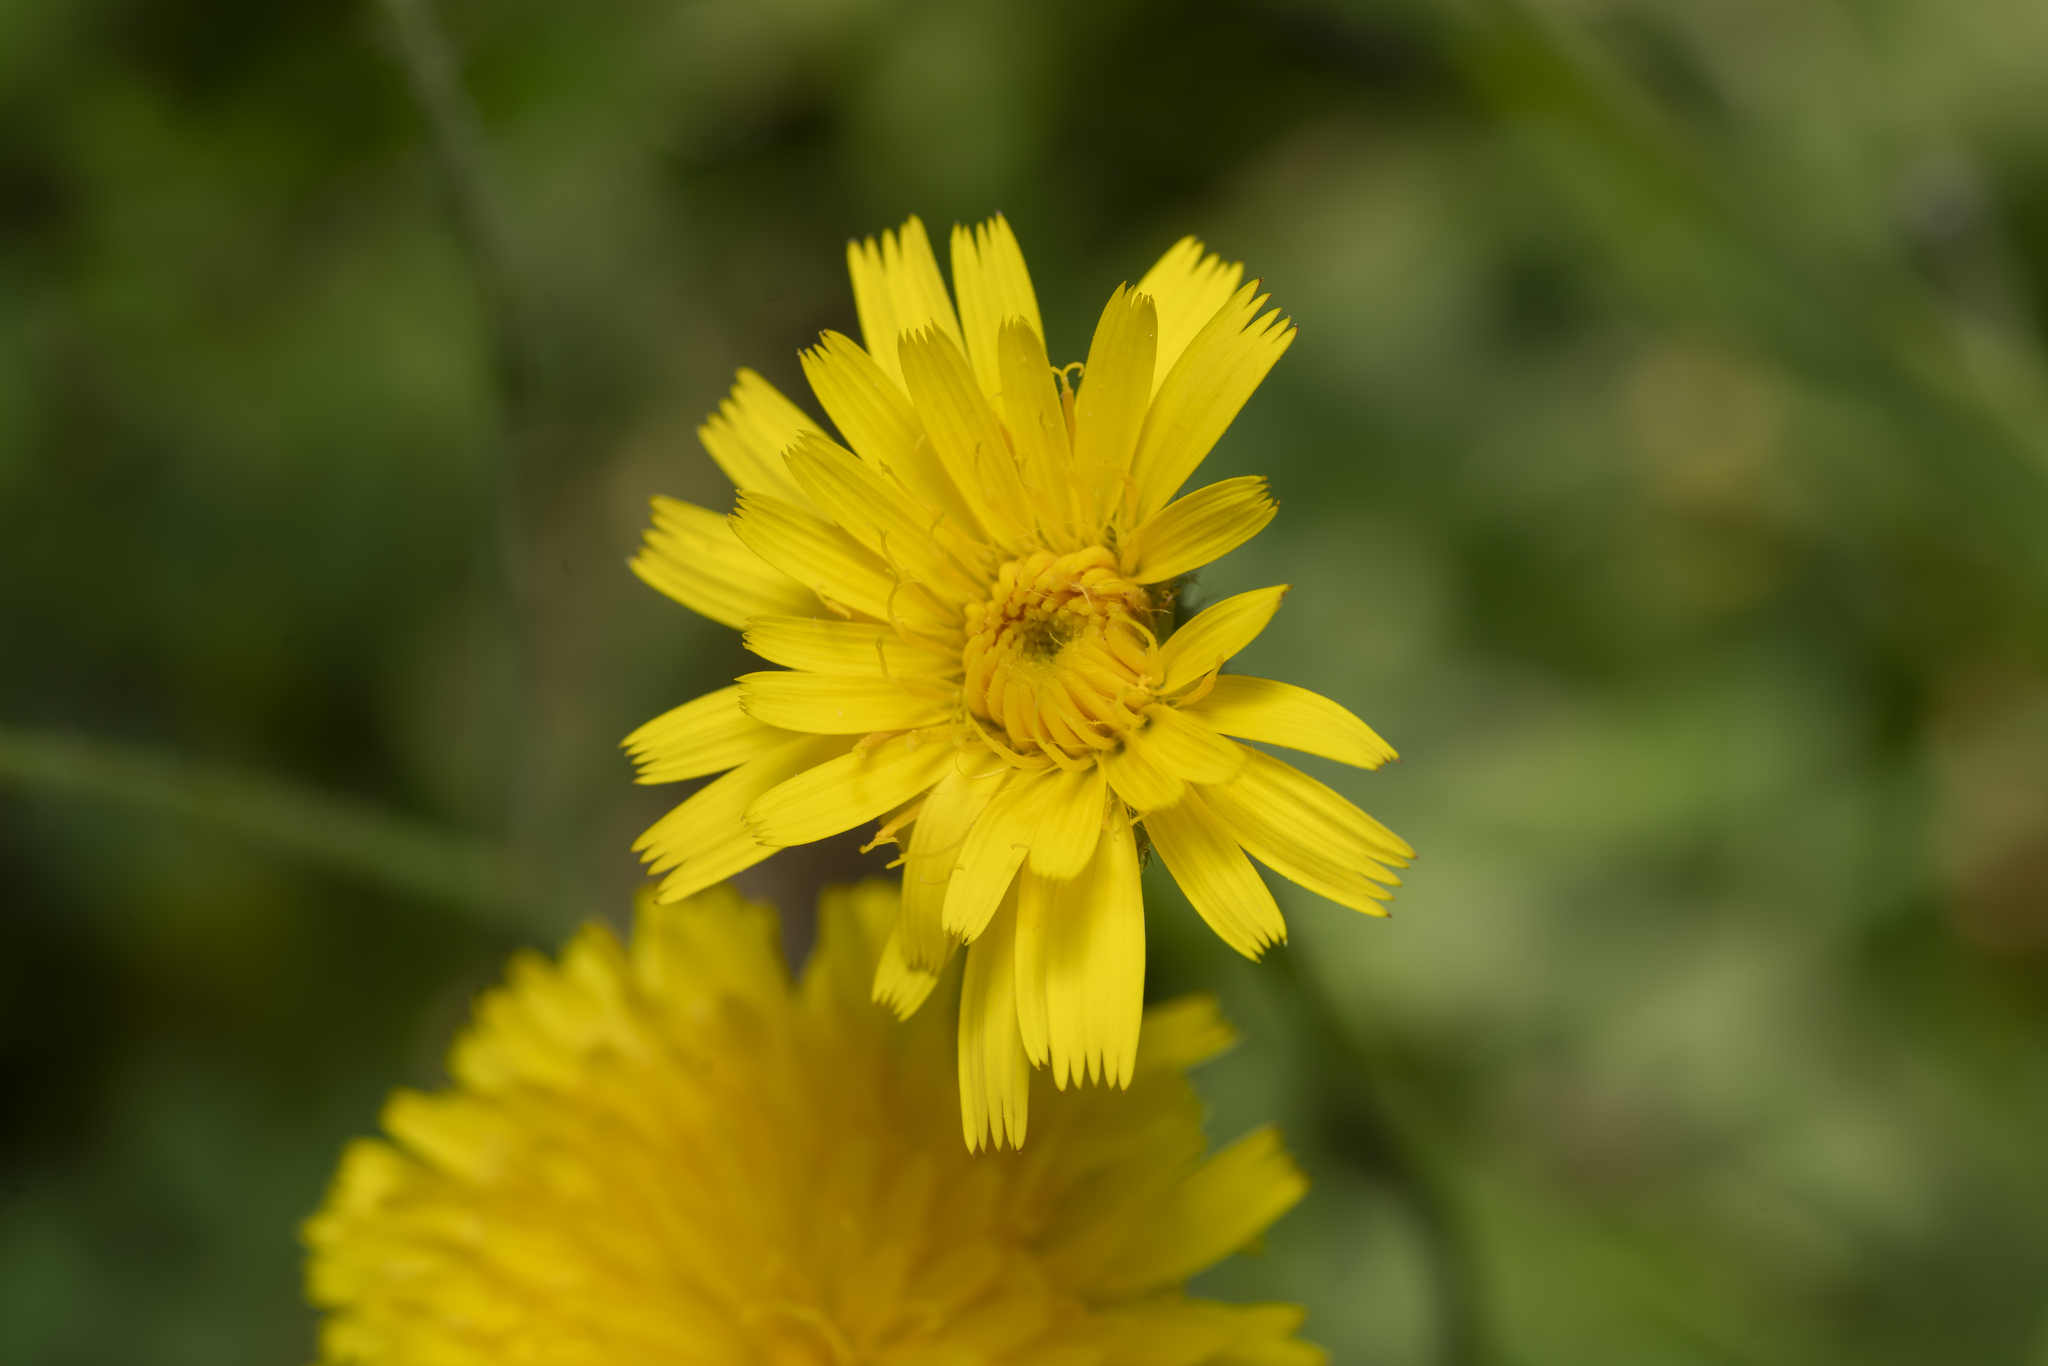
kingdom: Plantae
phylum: Tracheophyta
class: Magnoliopsida
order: Asterales
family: Asteraceae
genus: Achyrophorus
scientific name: Achyrophorus valdesii
